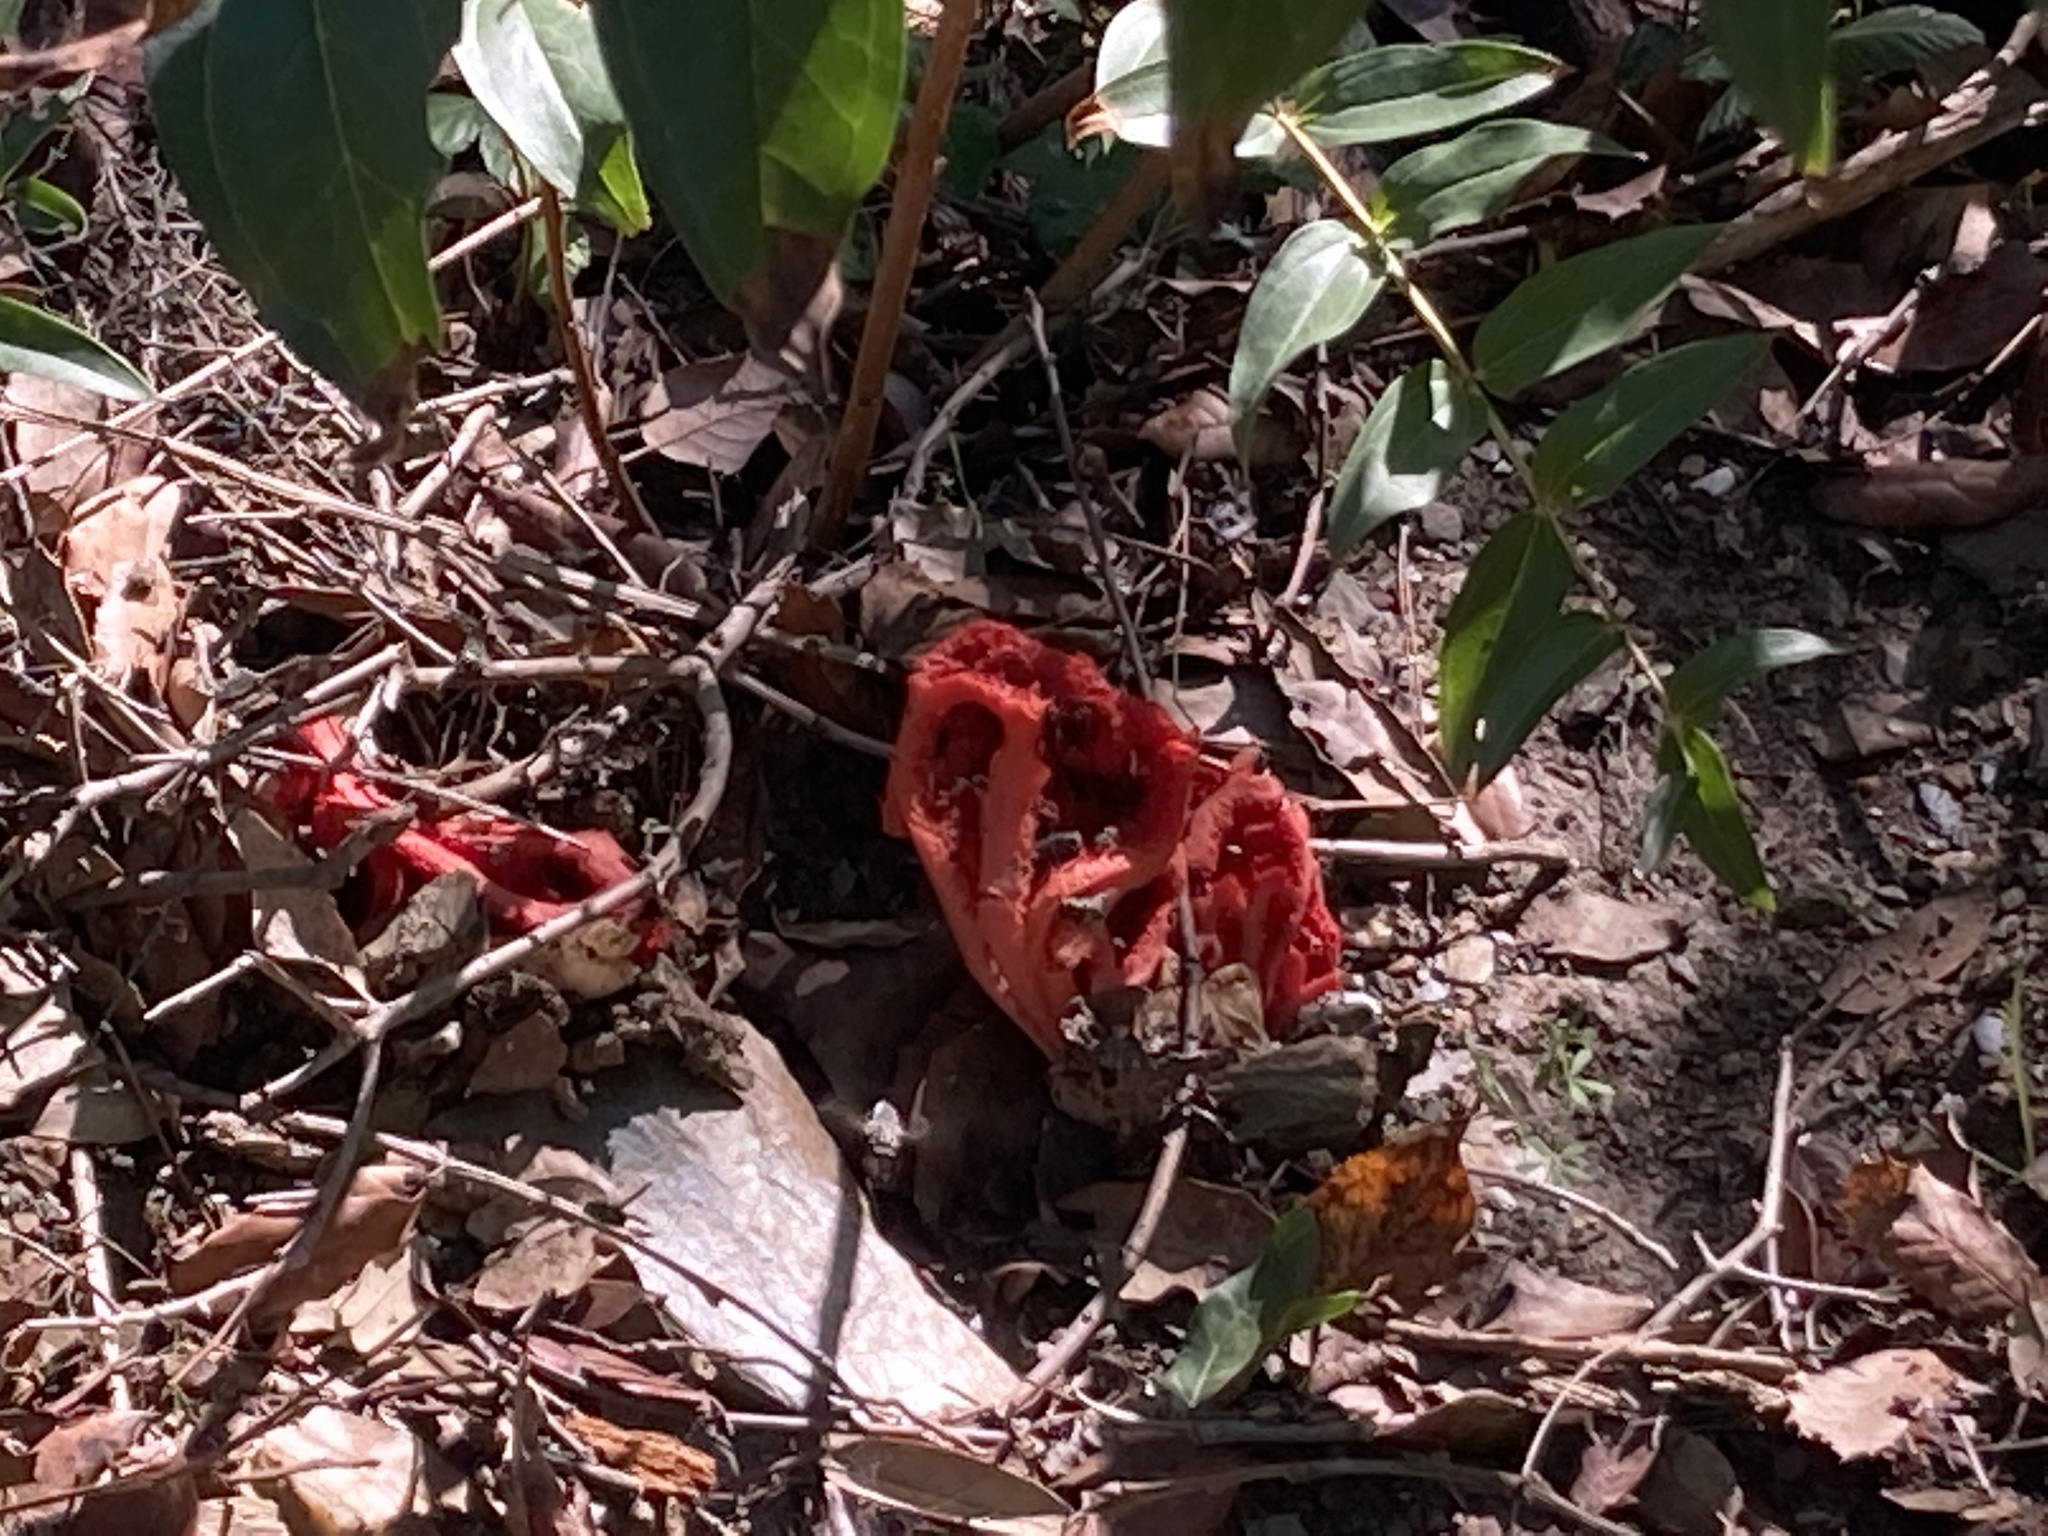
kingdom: Fungi
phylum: Basidiomycota
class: Agaricomycetes
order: Phallales
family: Phallaceae
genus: Clathrus
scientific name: Clathrus ruber
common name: Red cage
